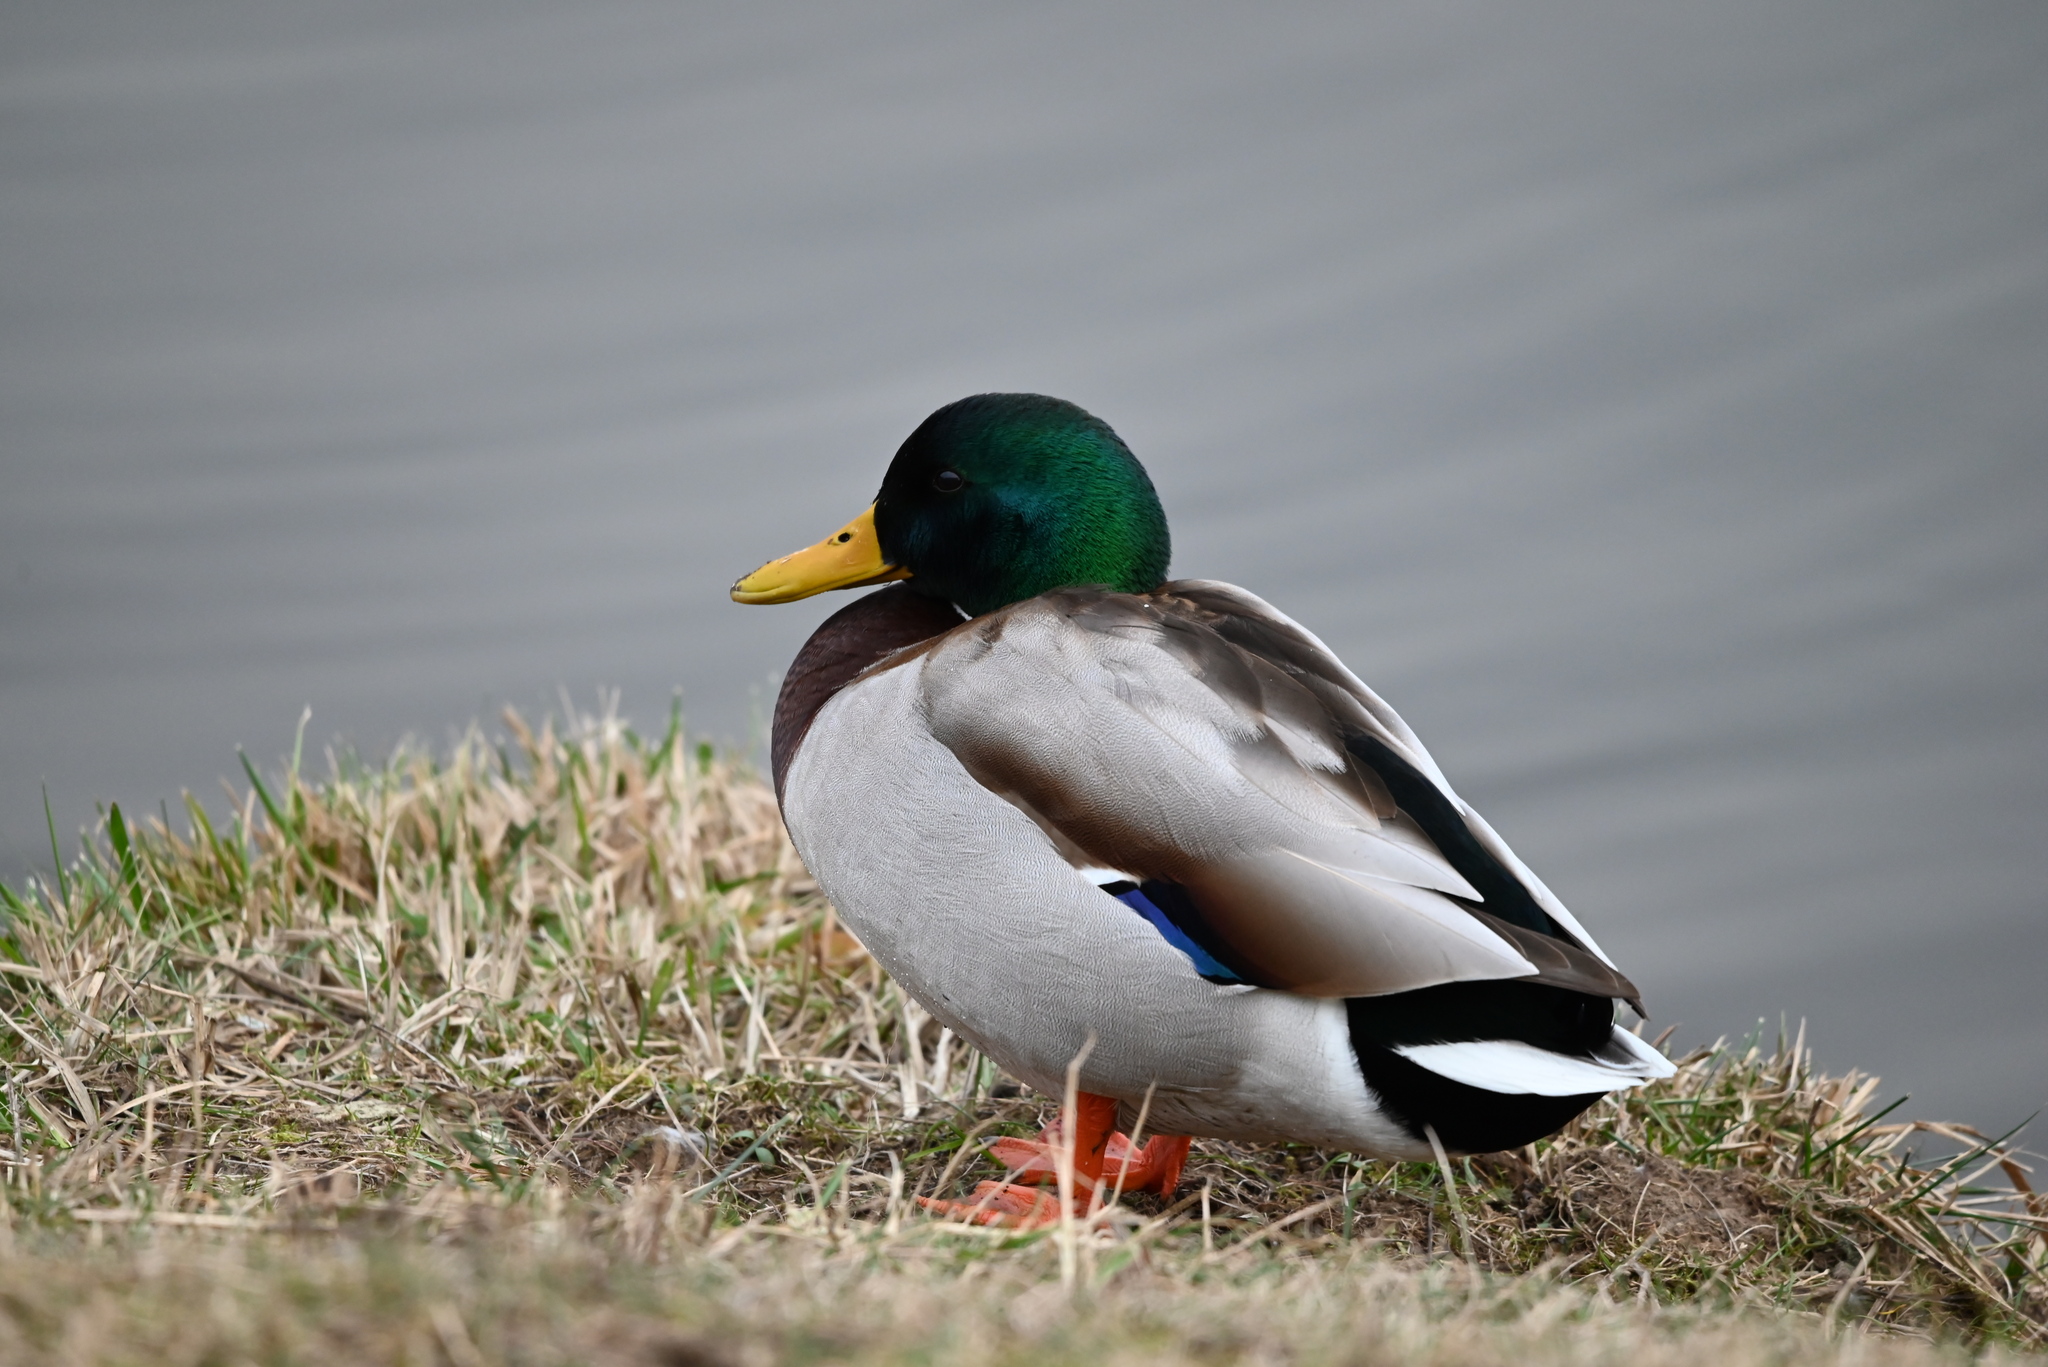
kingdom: Animalia
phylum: Chordata
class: Aves
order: Anseriformes
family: Anatidae
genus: Anas
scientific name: Anas platyrhynchos
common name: Mallard
